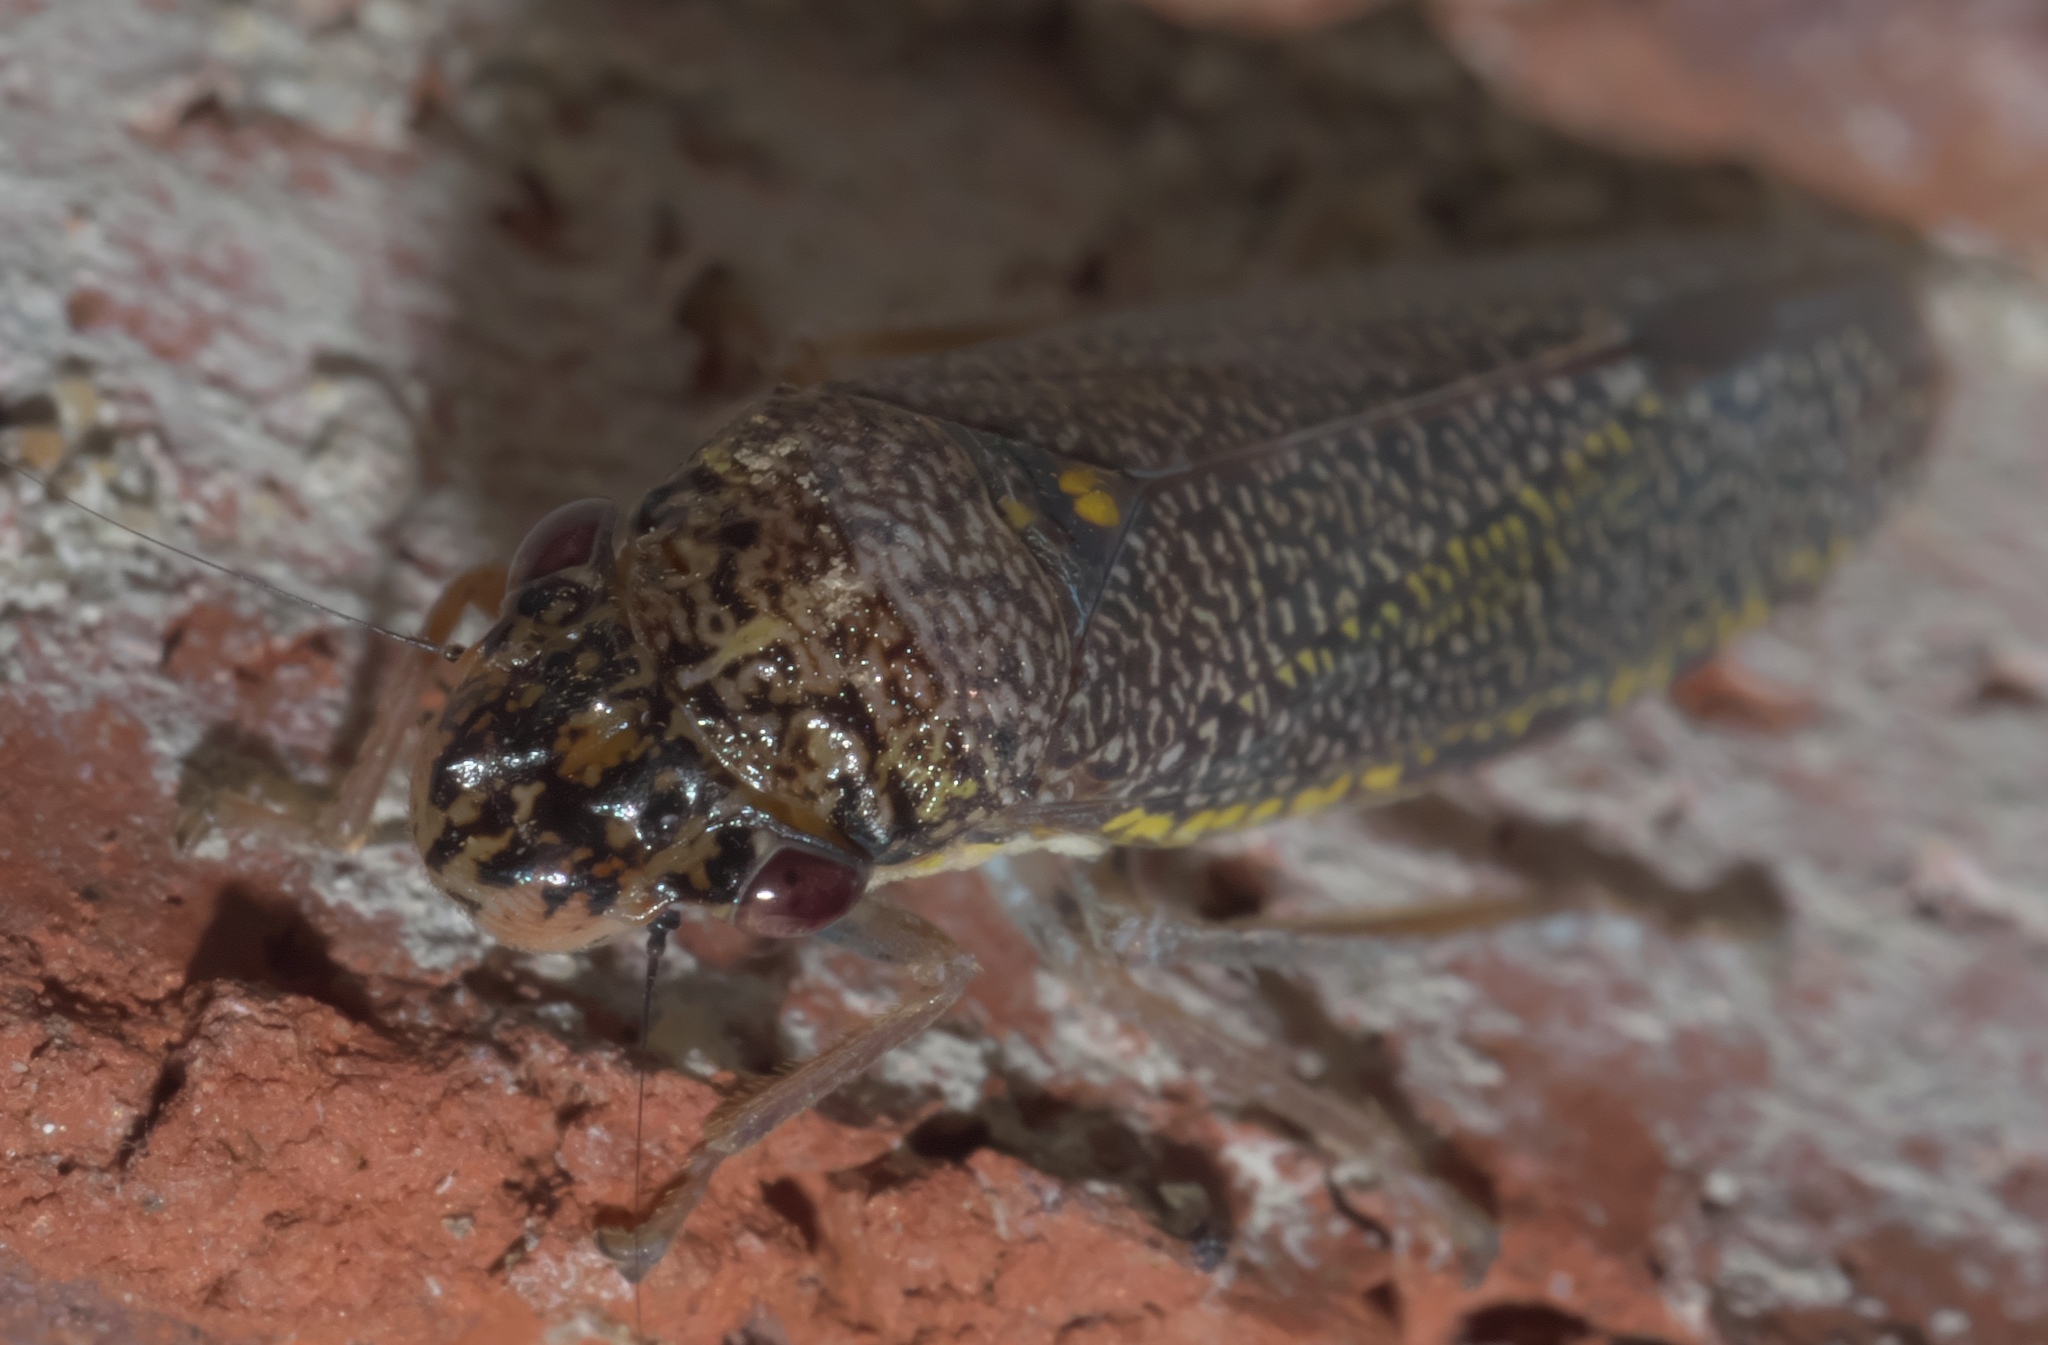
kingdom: Animalia
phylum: Arthropoda
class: Insecta
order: Hemiptera
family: Cicadellidae
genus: Paraulacizes
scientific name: Paraulacizes irrorata
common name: Speckled sharpshooter
